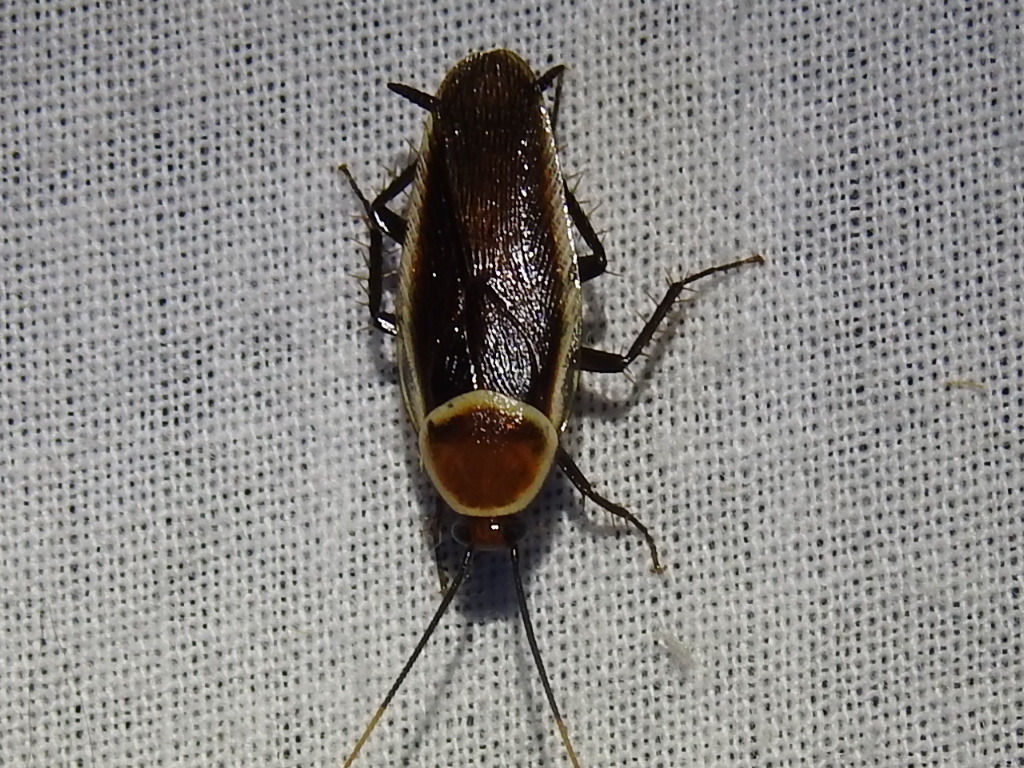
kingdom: Animalia
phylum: Arthropoda
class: Insecta
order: Blattodea
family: Ectobiidae
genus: Pseudomops
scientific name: Pseudomops septentrionalis
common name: Pale-bordered field cockroach
